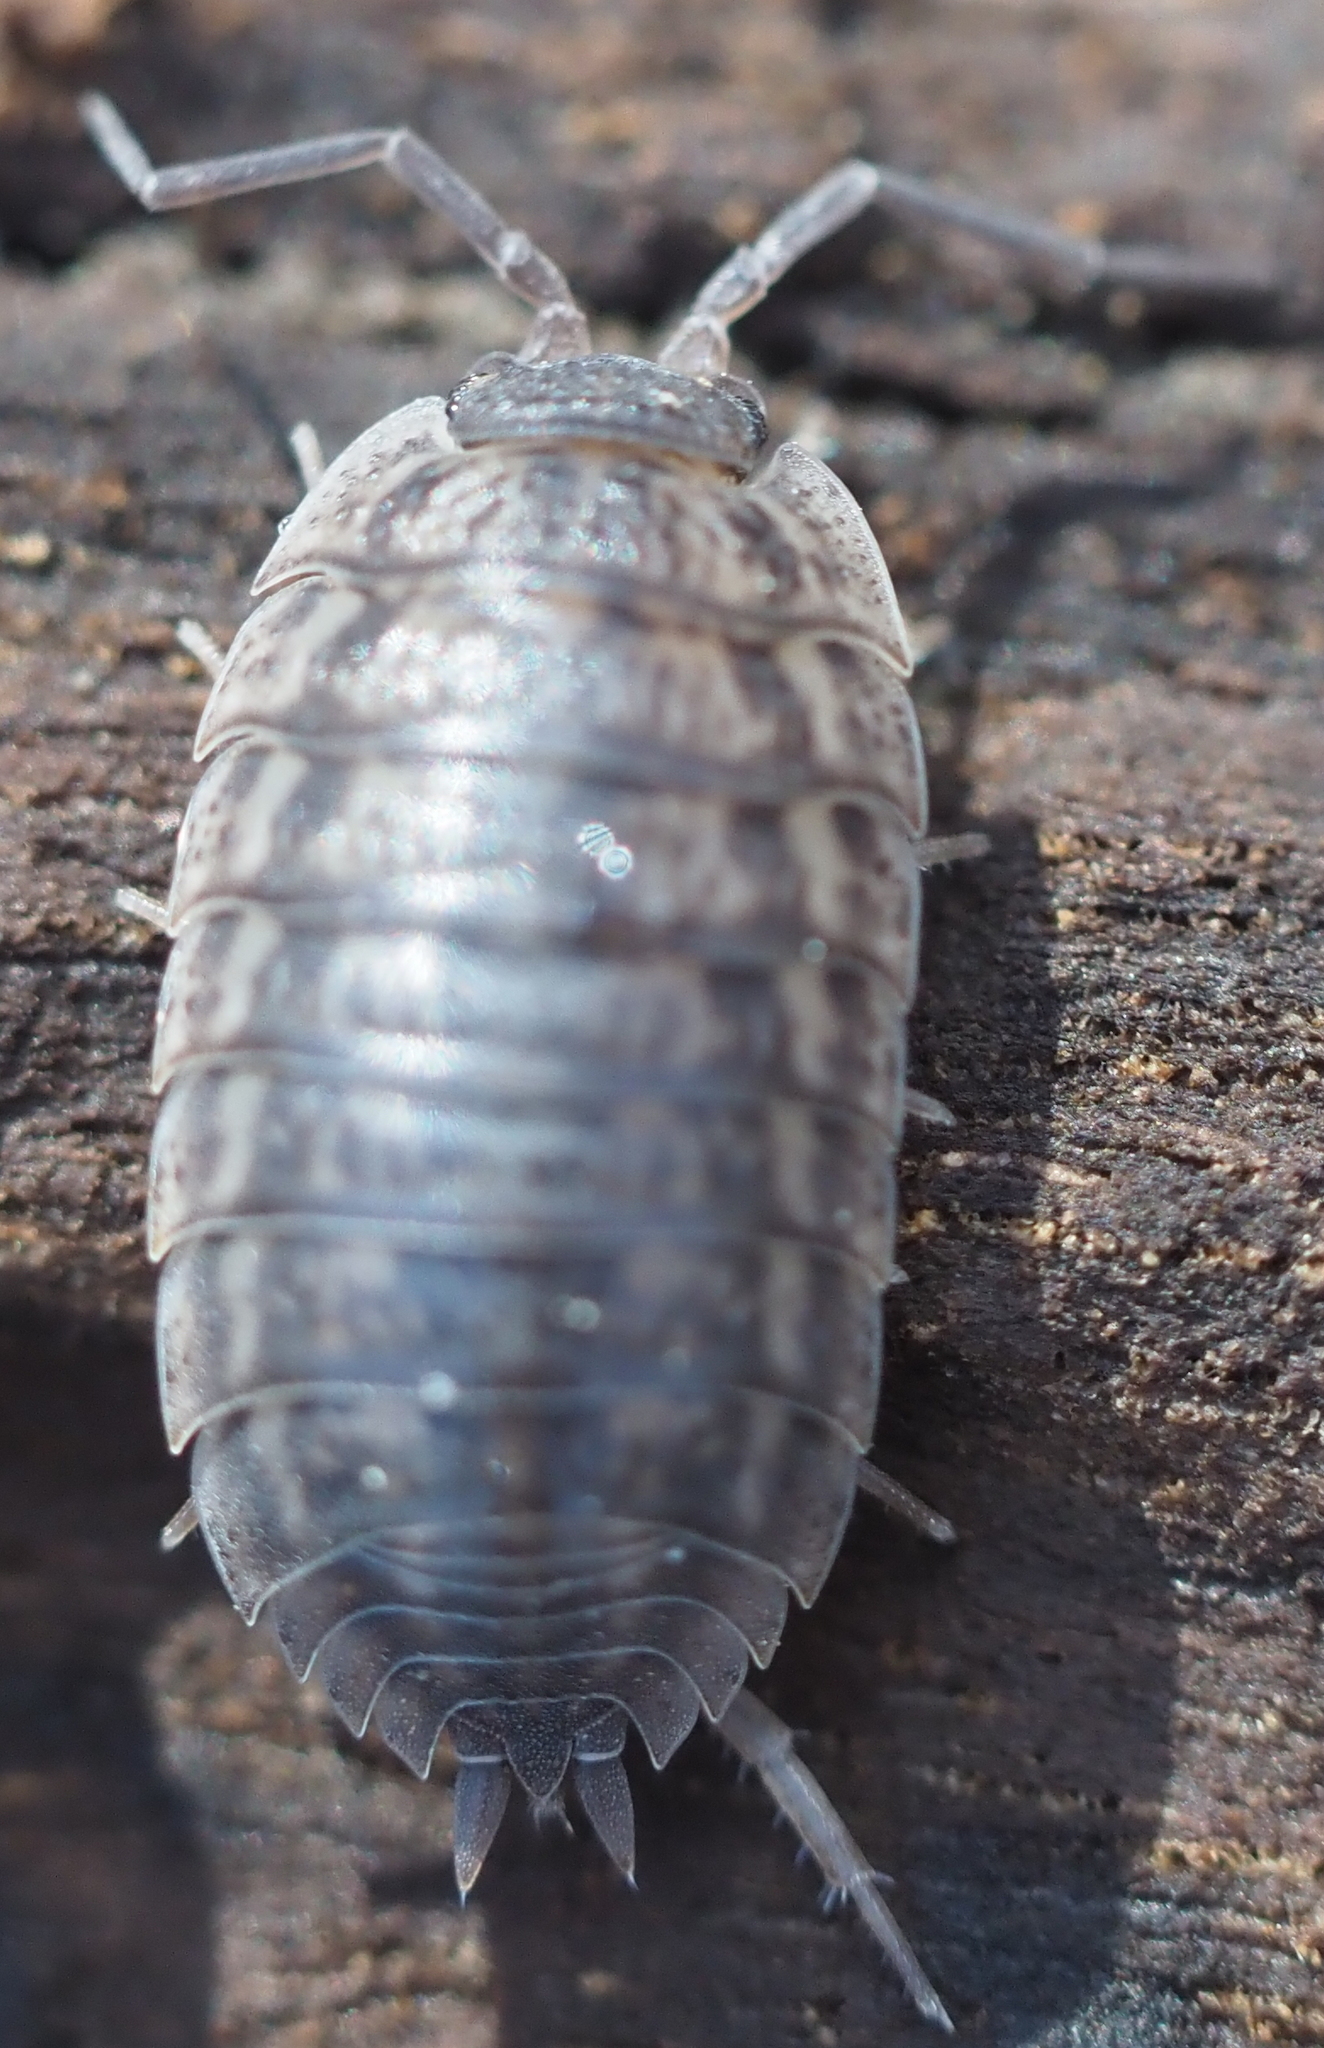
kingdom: Animalia
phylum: Arthropoda
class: Malacostraca
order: Isopoda
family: Trachelipodidae
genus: Trachelipus
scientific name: Trachelipus rathkii
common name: Isopod
